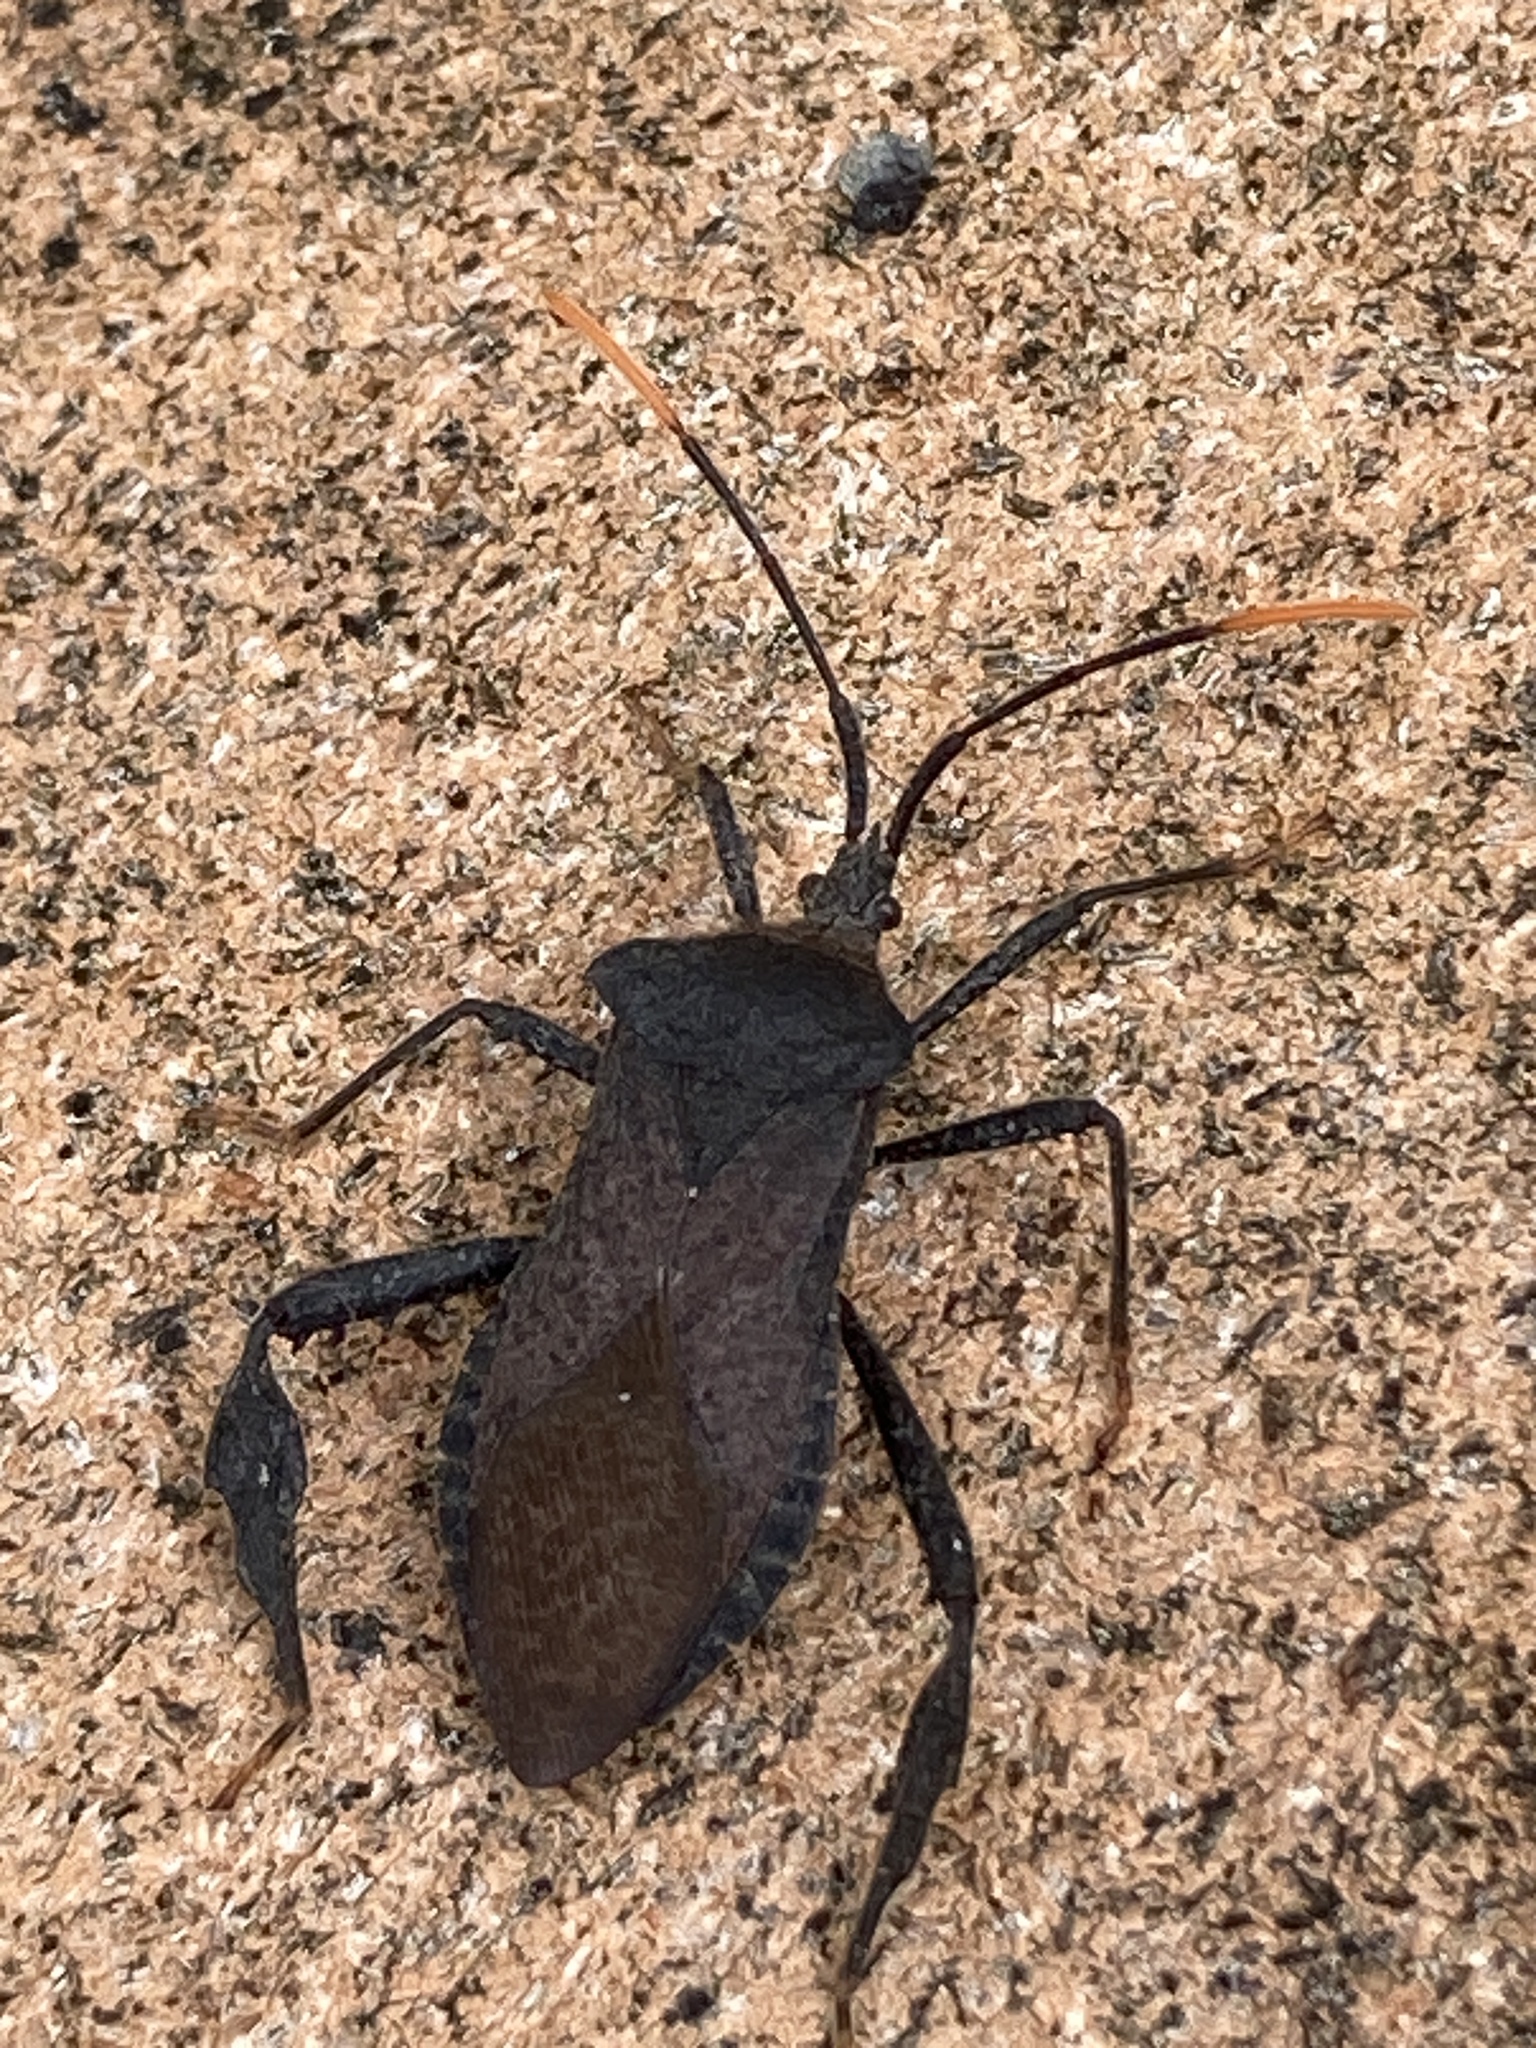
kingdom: Animalia
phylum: Arthropoda
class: Insecta
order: Hemiptera
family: Coreidae
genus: Acanthocephala
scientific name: Acanthocephala terminalis
